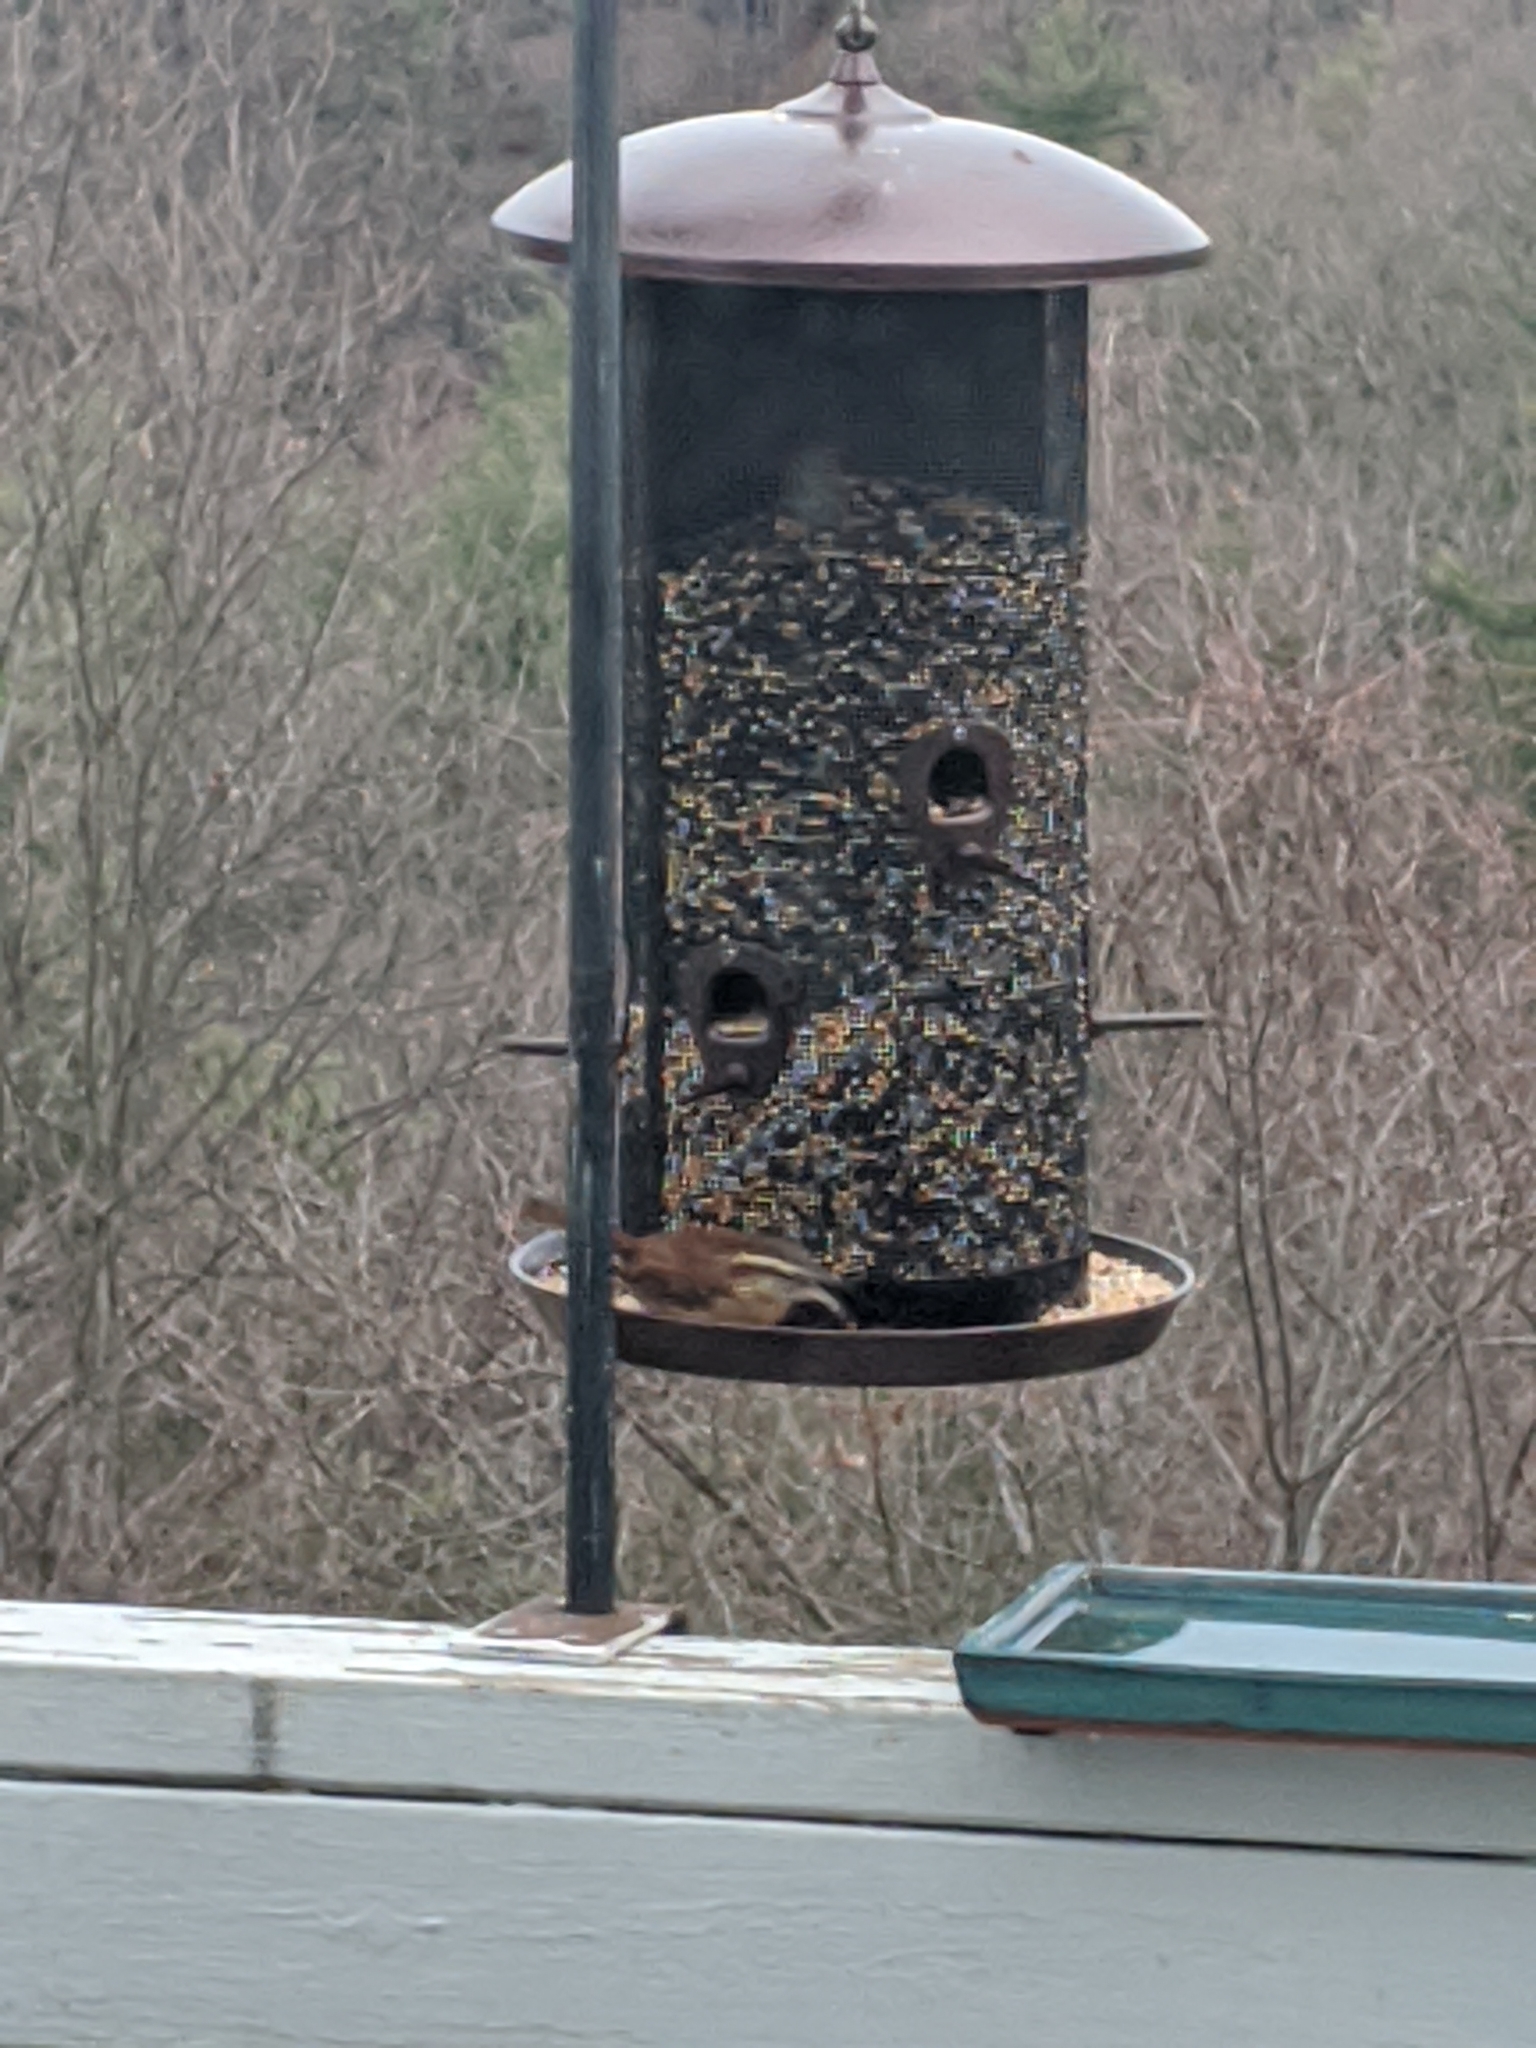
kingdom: Animalia
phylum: Chordata
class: Aves
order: Passeriformes
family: Troglodytidae
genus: Thryothorus
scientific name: Thryothorus ludovicianus
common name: Carolina wren
